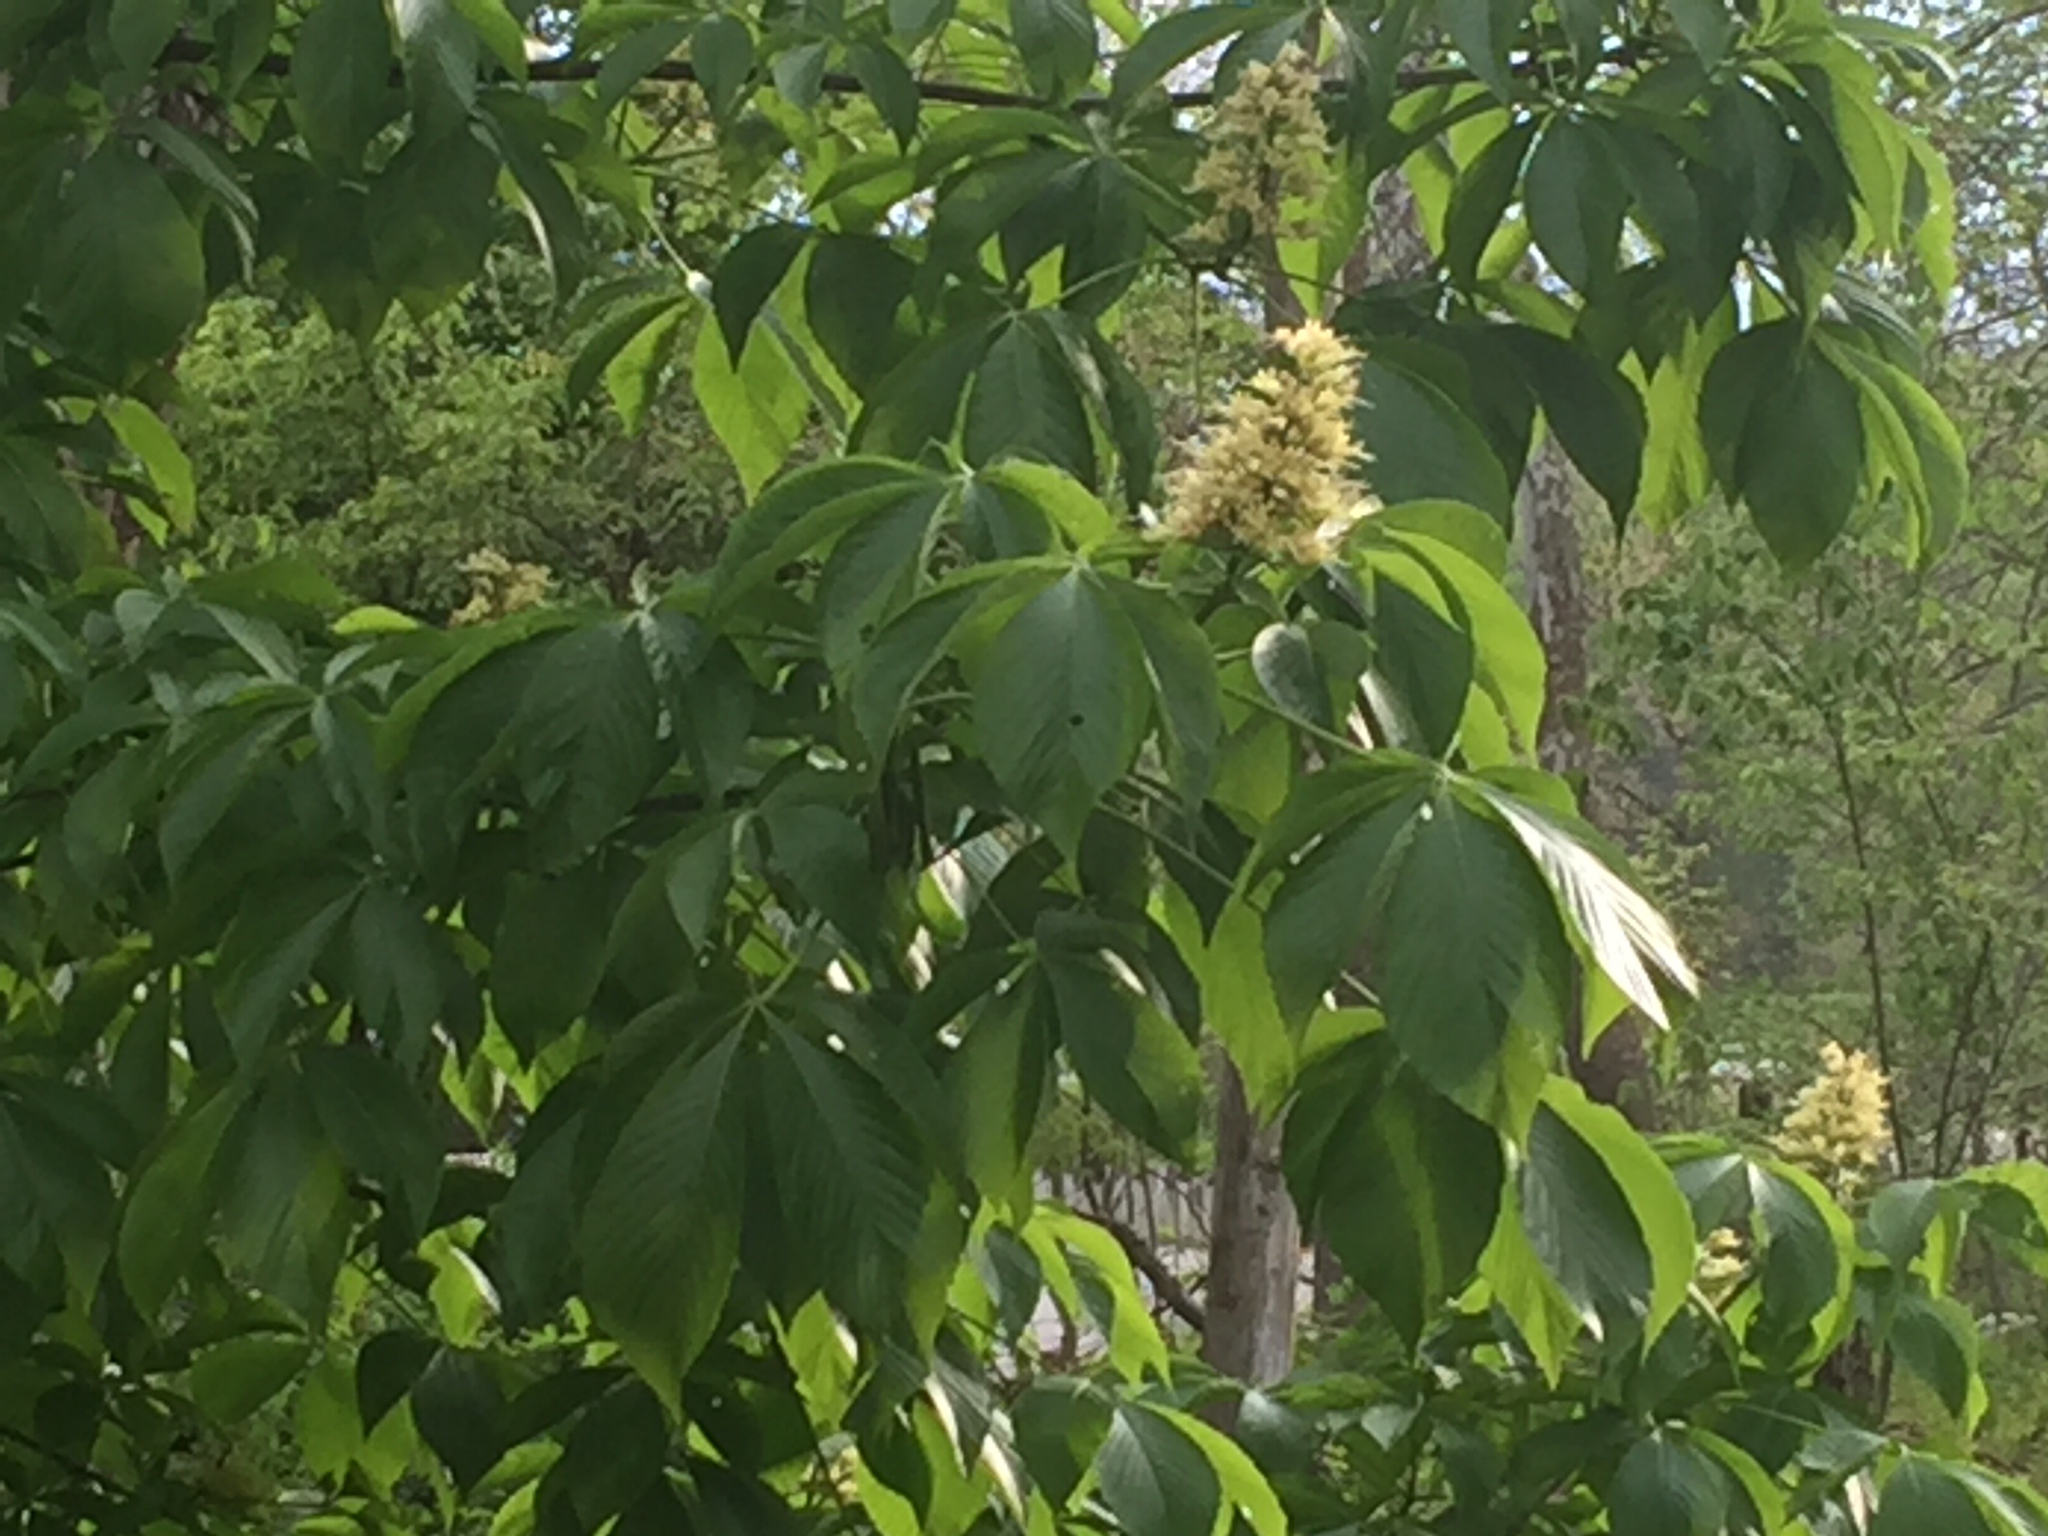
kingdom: Plantae
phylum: Tracheophyta
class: Magnoliopsida
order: Sapindales
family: Sapindaceae
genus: Aesculus
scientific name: Aesculus glabra
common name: Ohio buckeye
